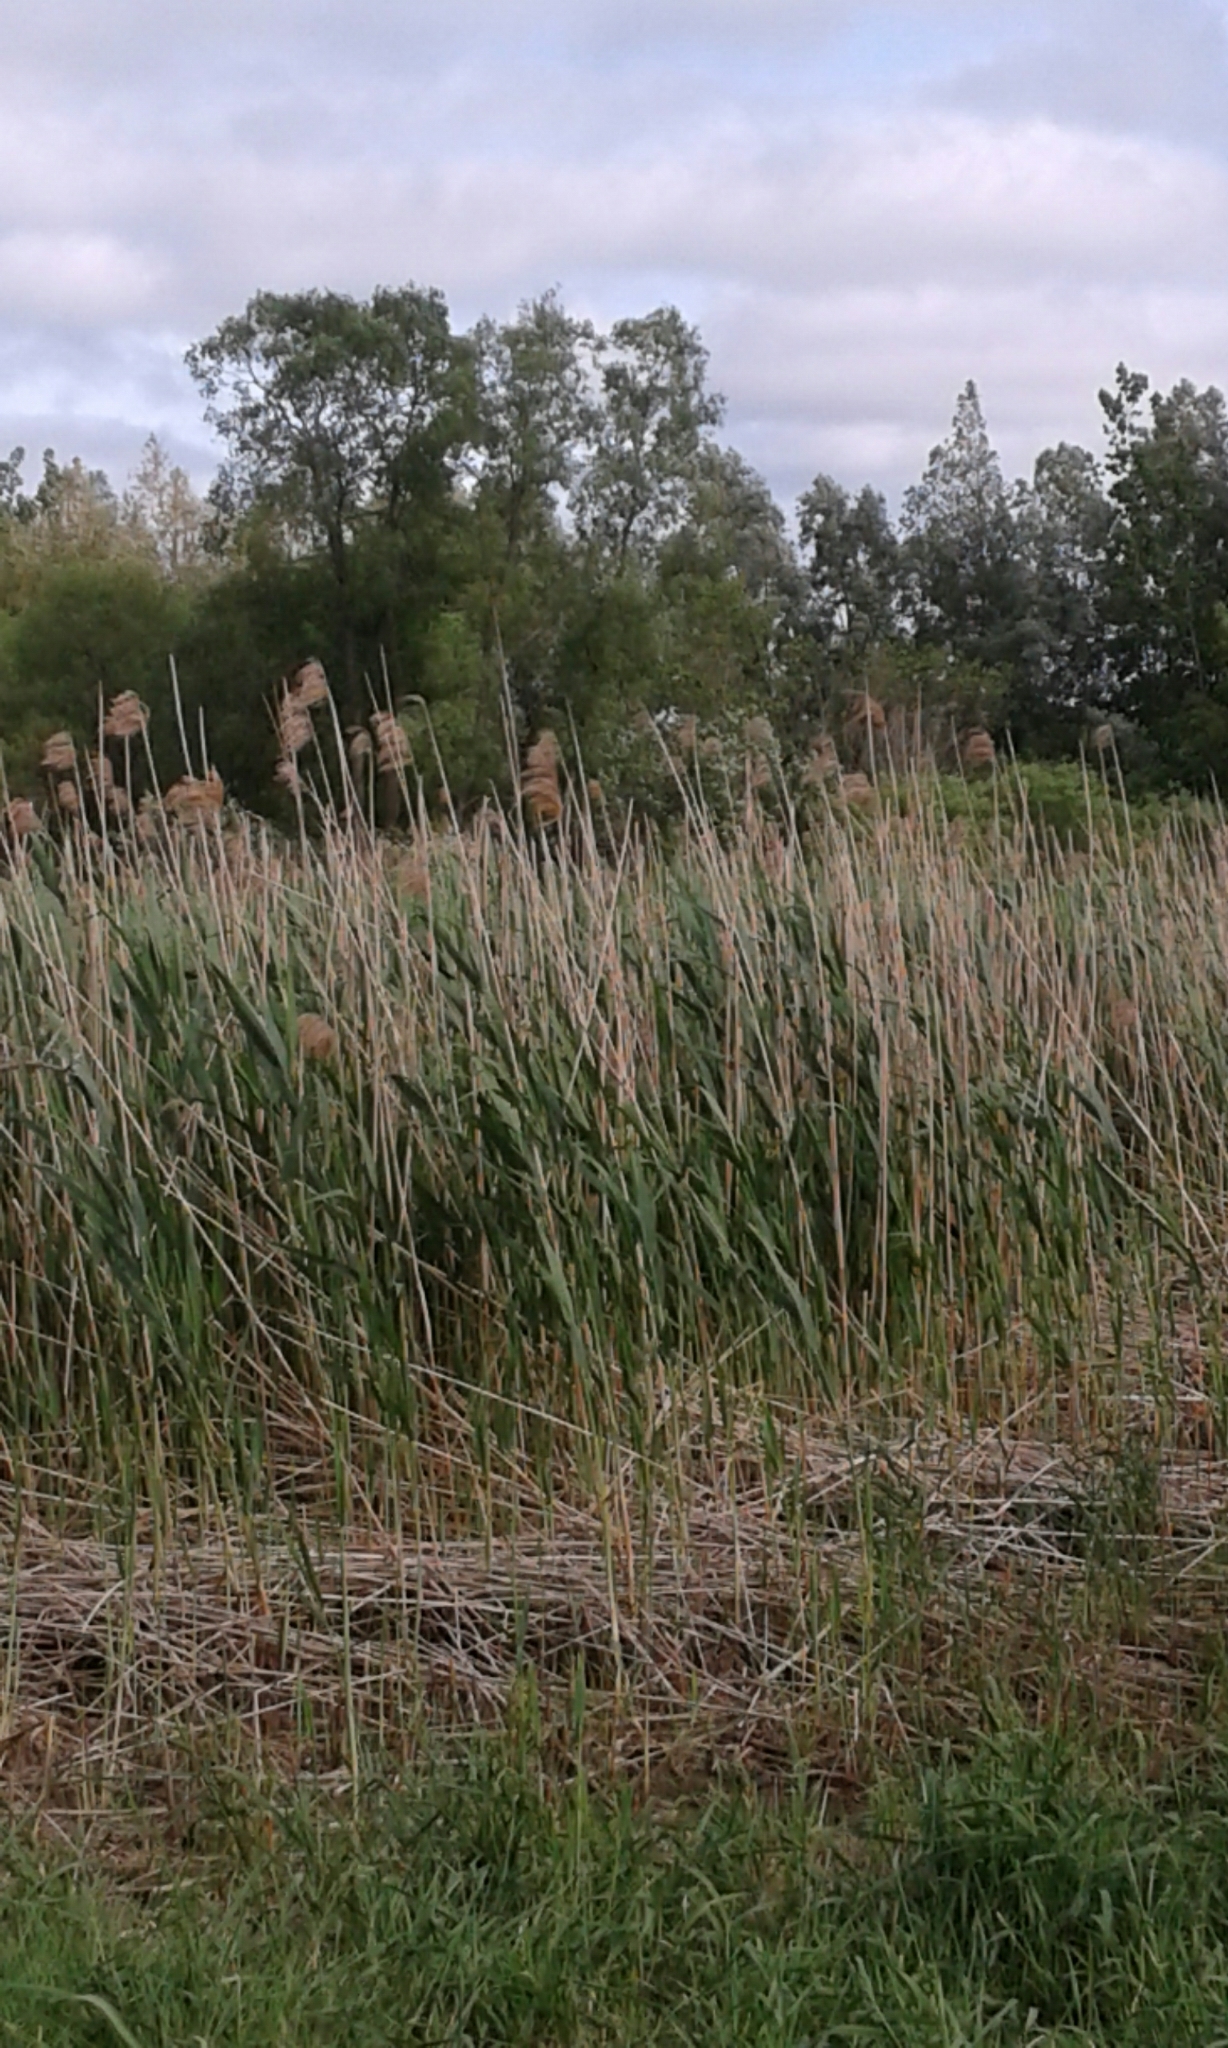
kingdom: Plantae
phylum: Tracheophyta
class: Liliopsida
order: Poales
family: Poaceae
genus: Phragmites
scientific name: Phragmites australis
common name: Common reed
